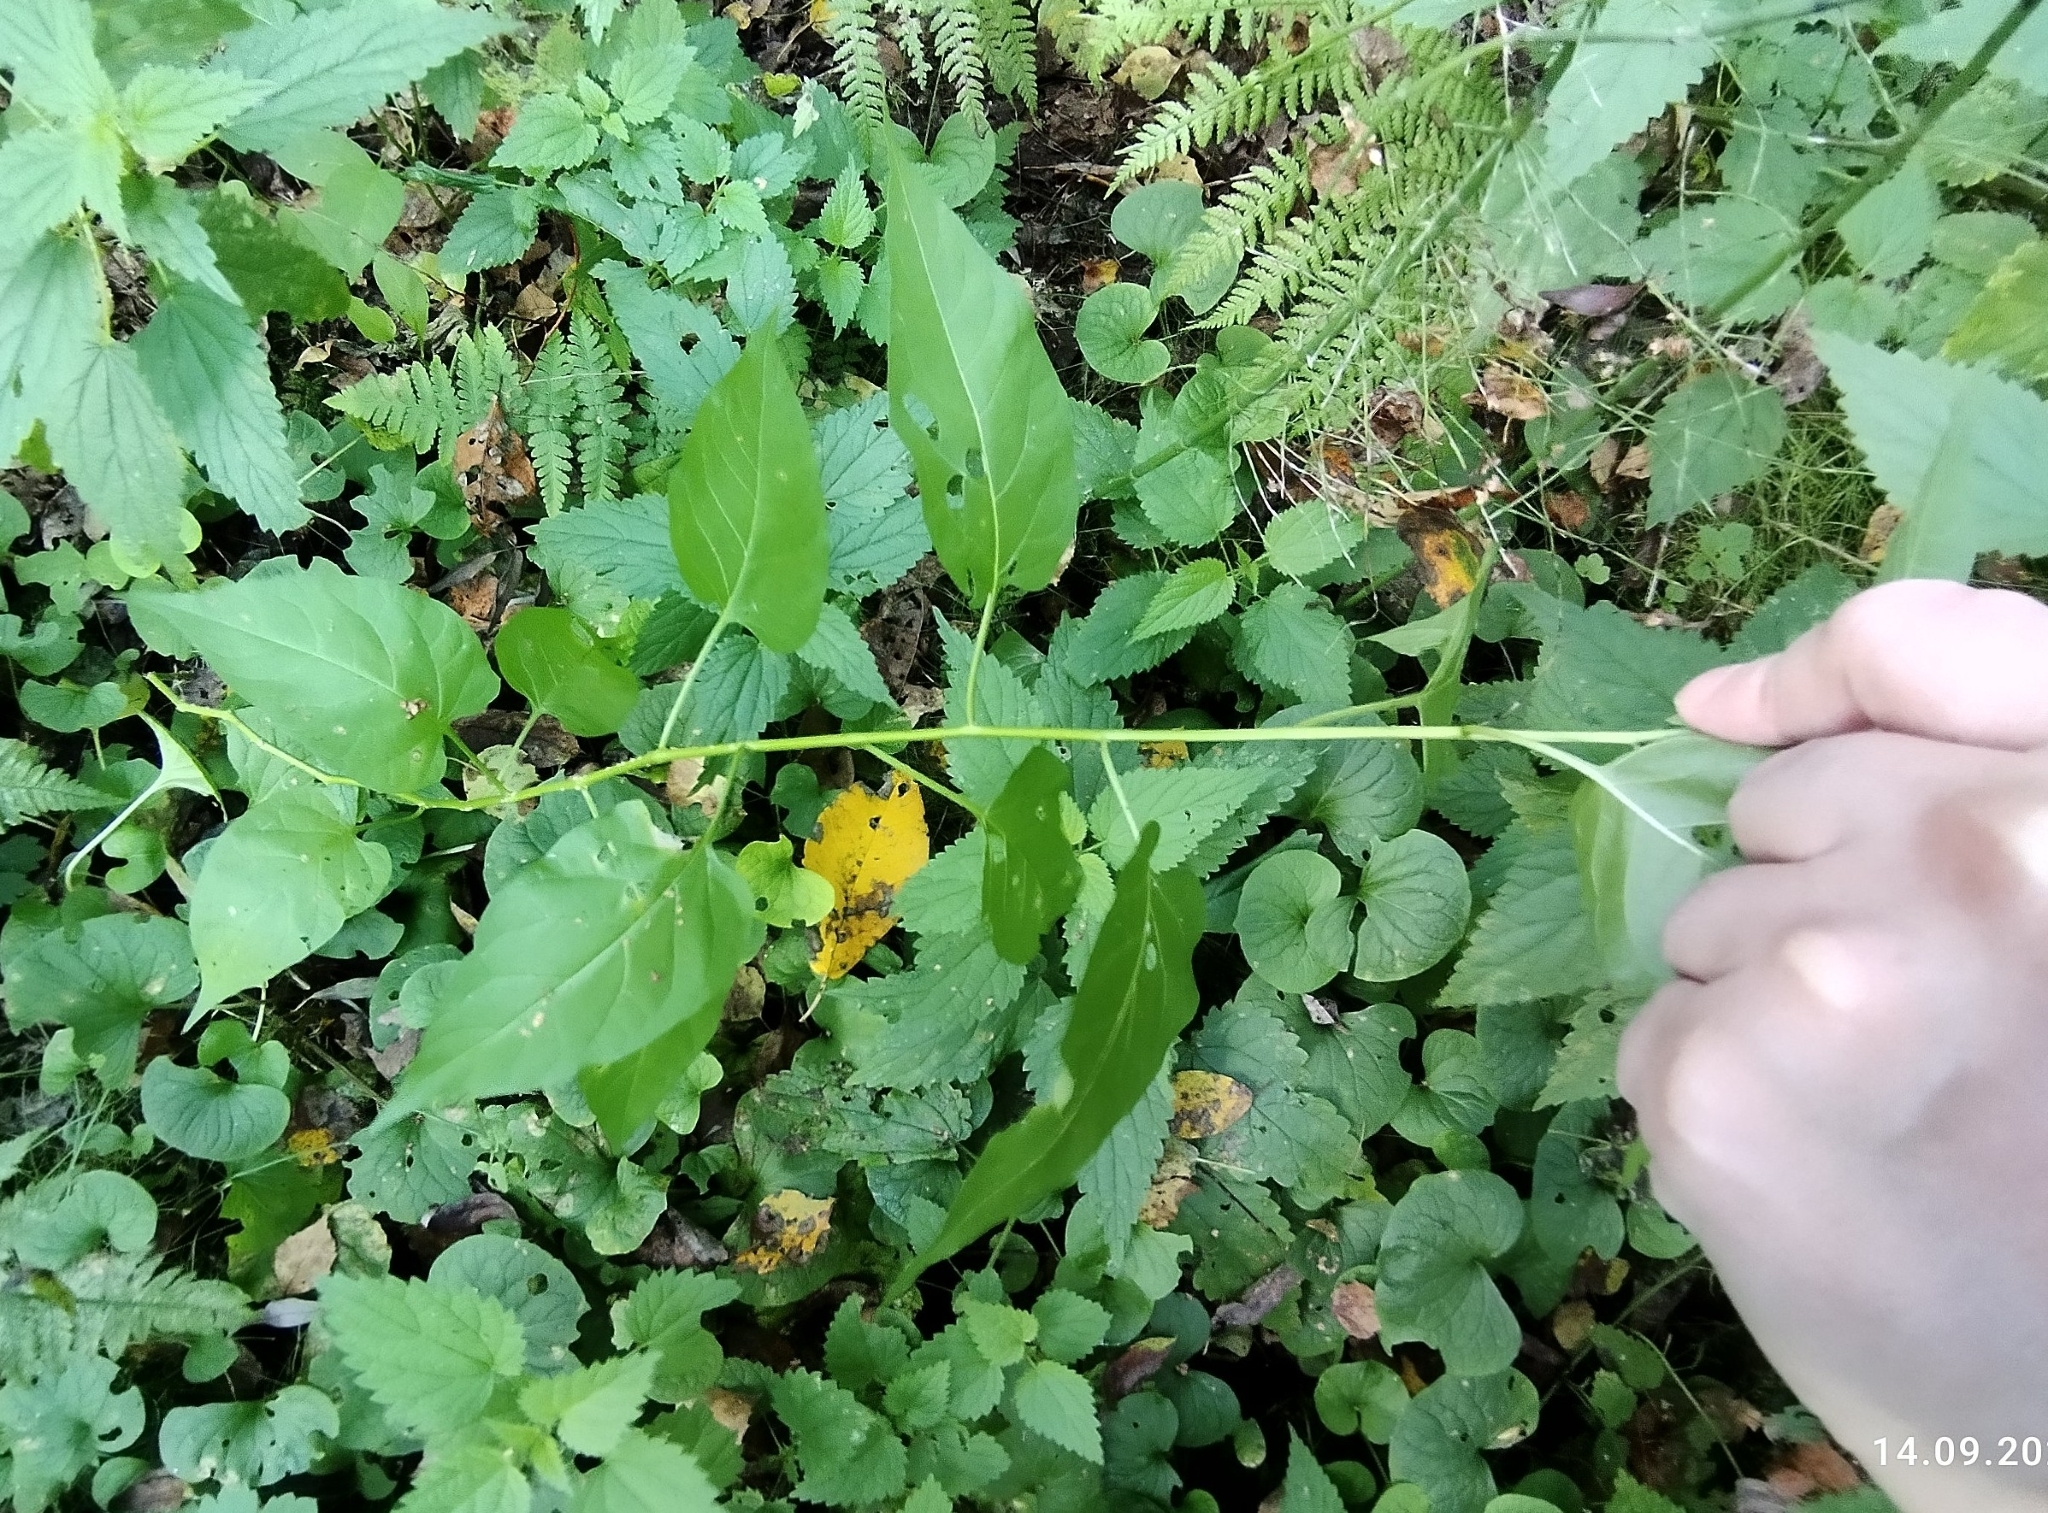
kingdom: Plantae
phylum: Tracheophyta
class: Magnoliopsida
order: Solanales
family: Solanaceae
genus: Solanum
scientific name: Solanum dulcamara
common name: Climbing nightshade
